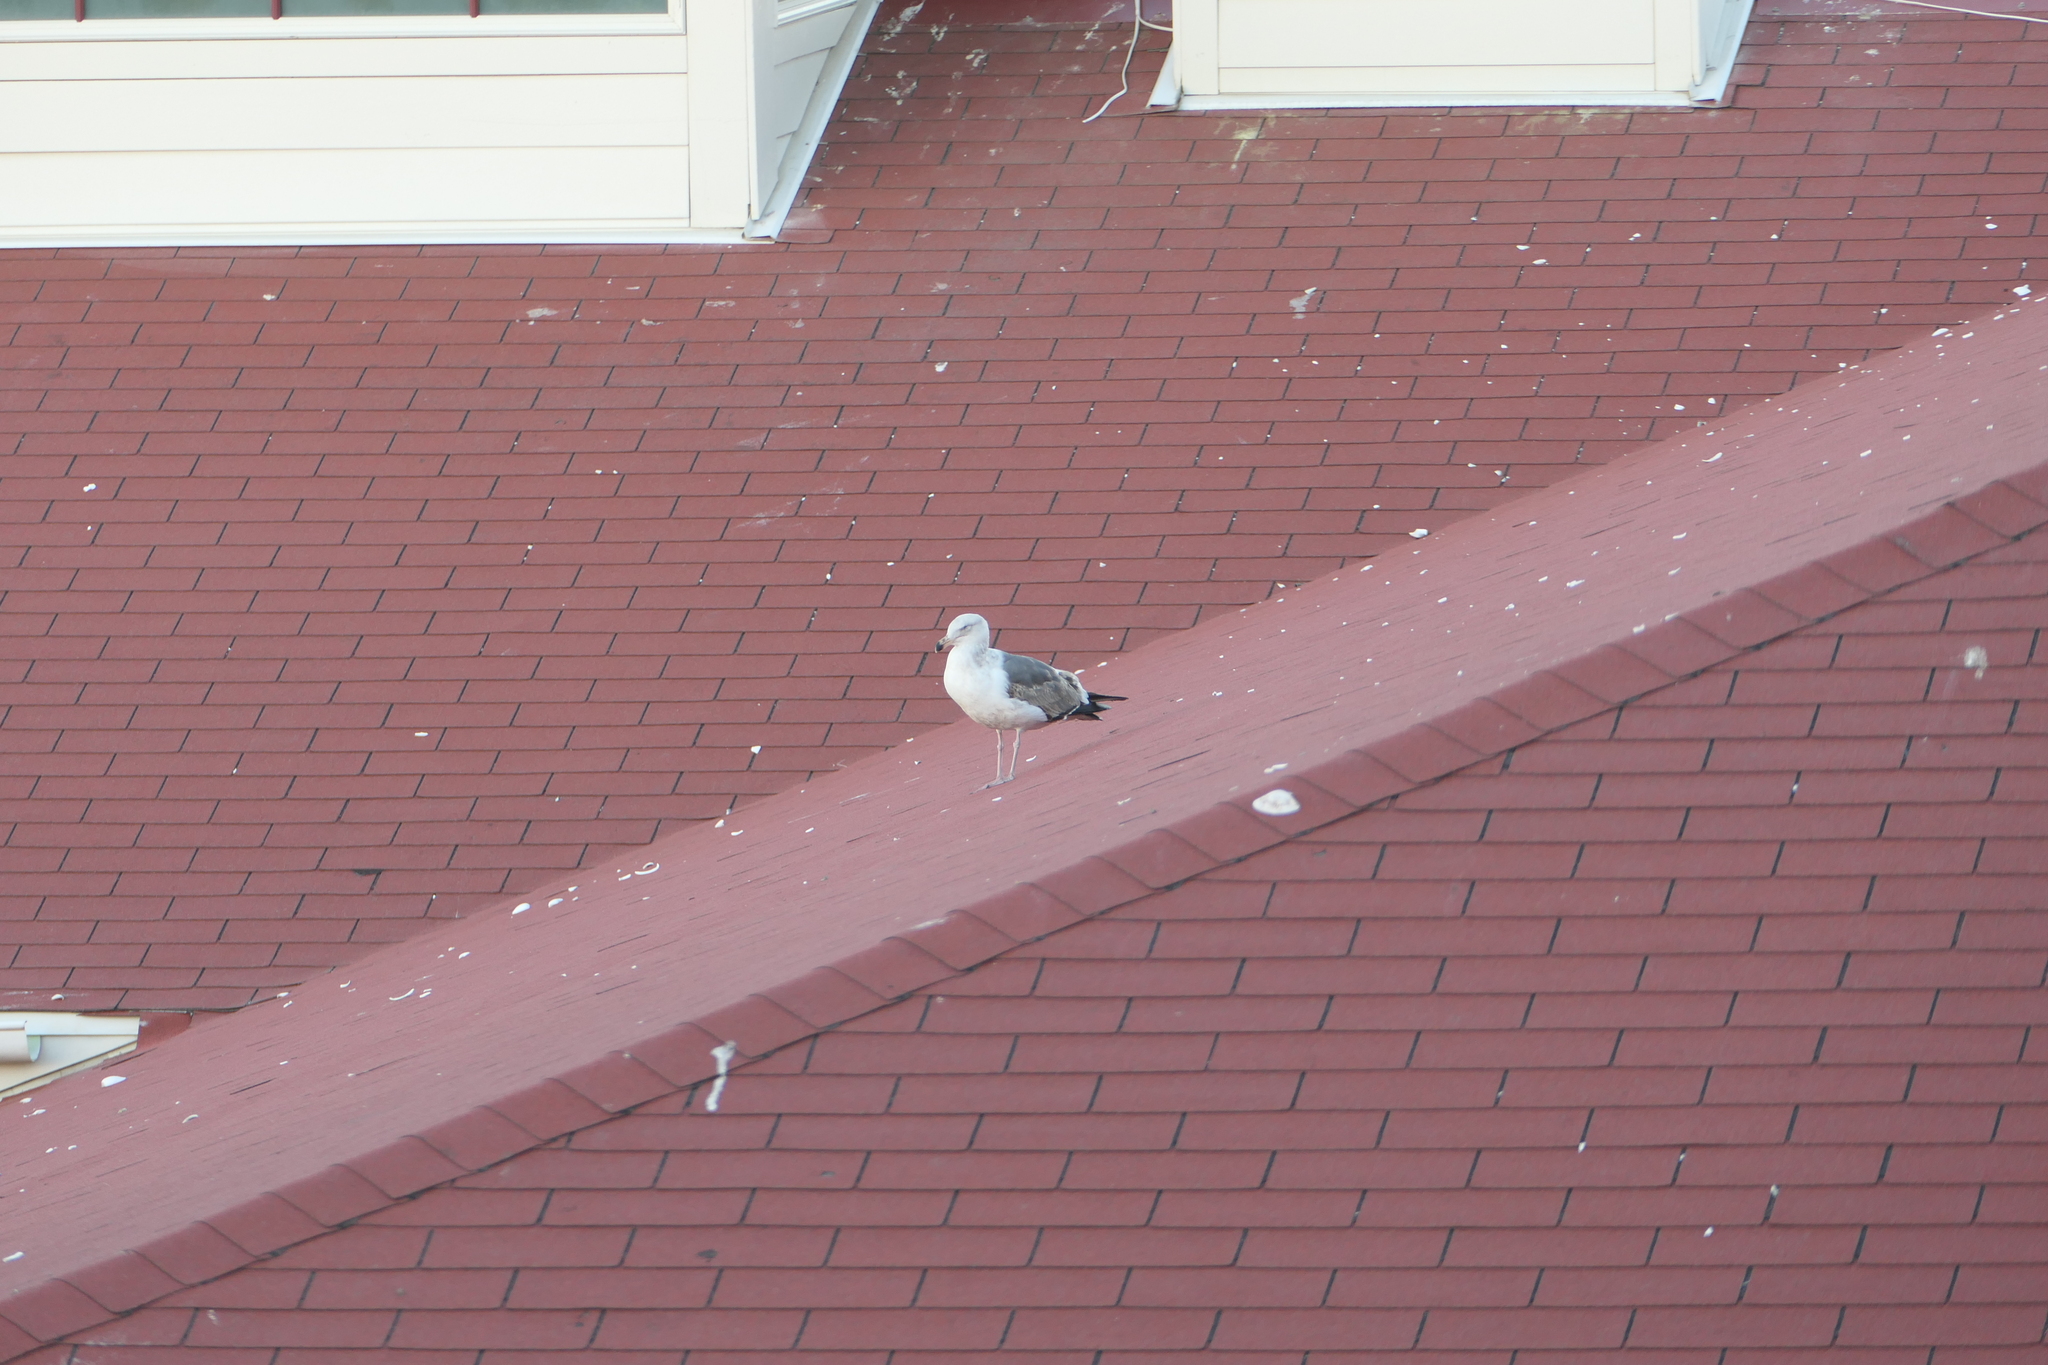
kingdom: Animalia
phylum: Chordata
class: Aves
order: Charadriiformes
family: Laridae
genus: Larus
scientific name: Larus occidentalis
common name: Western gull
